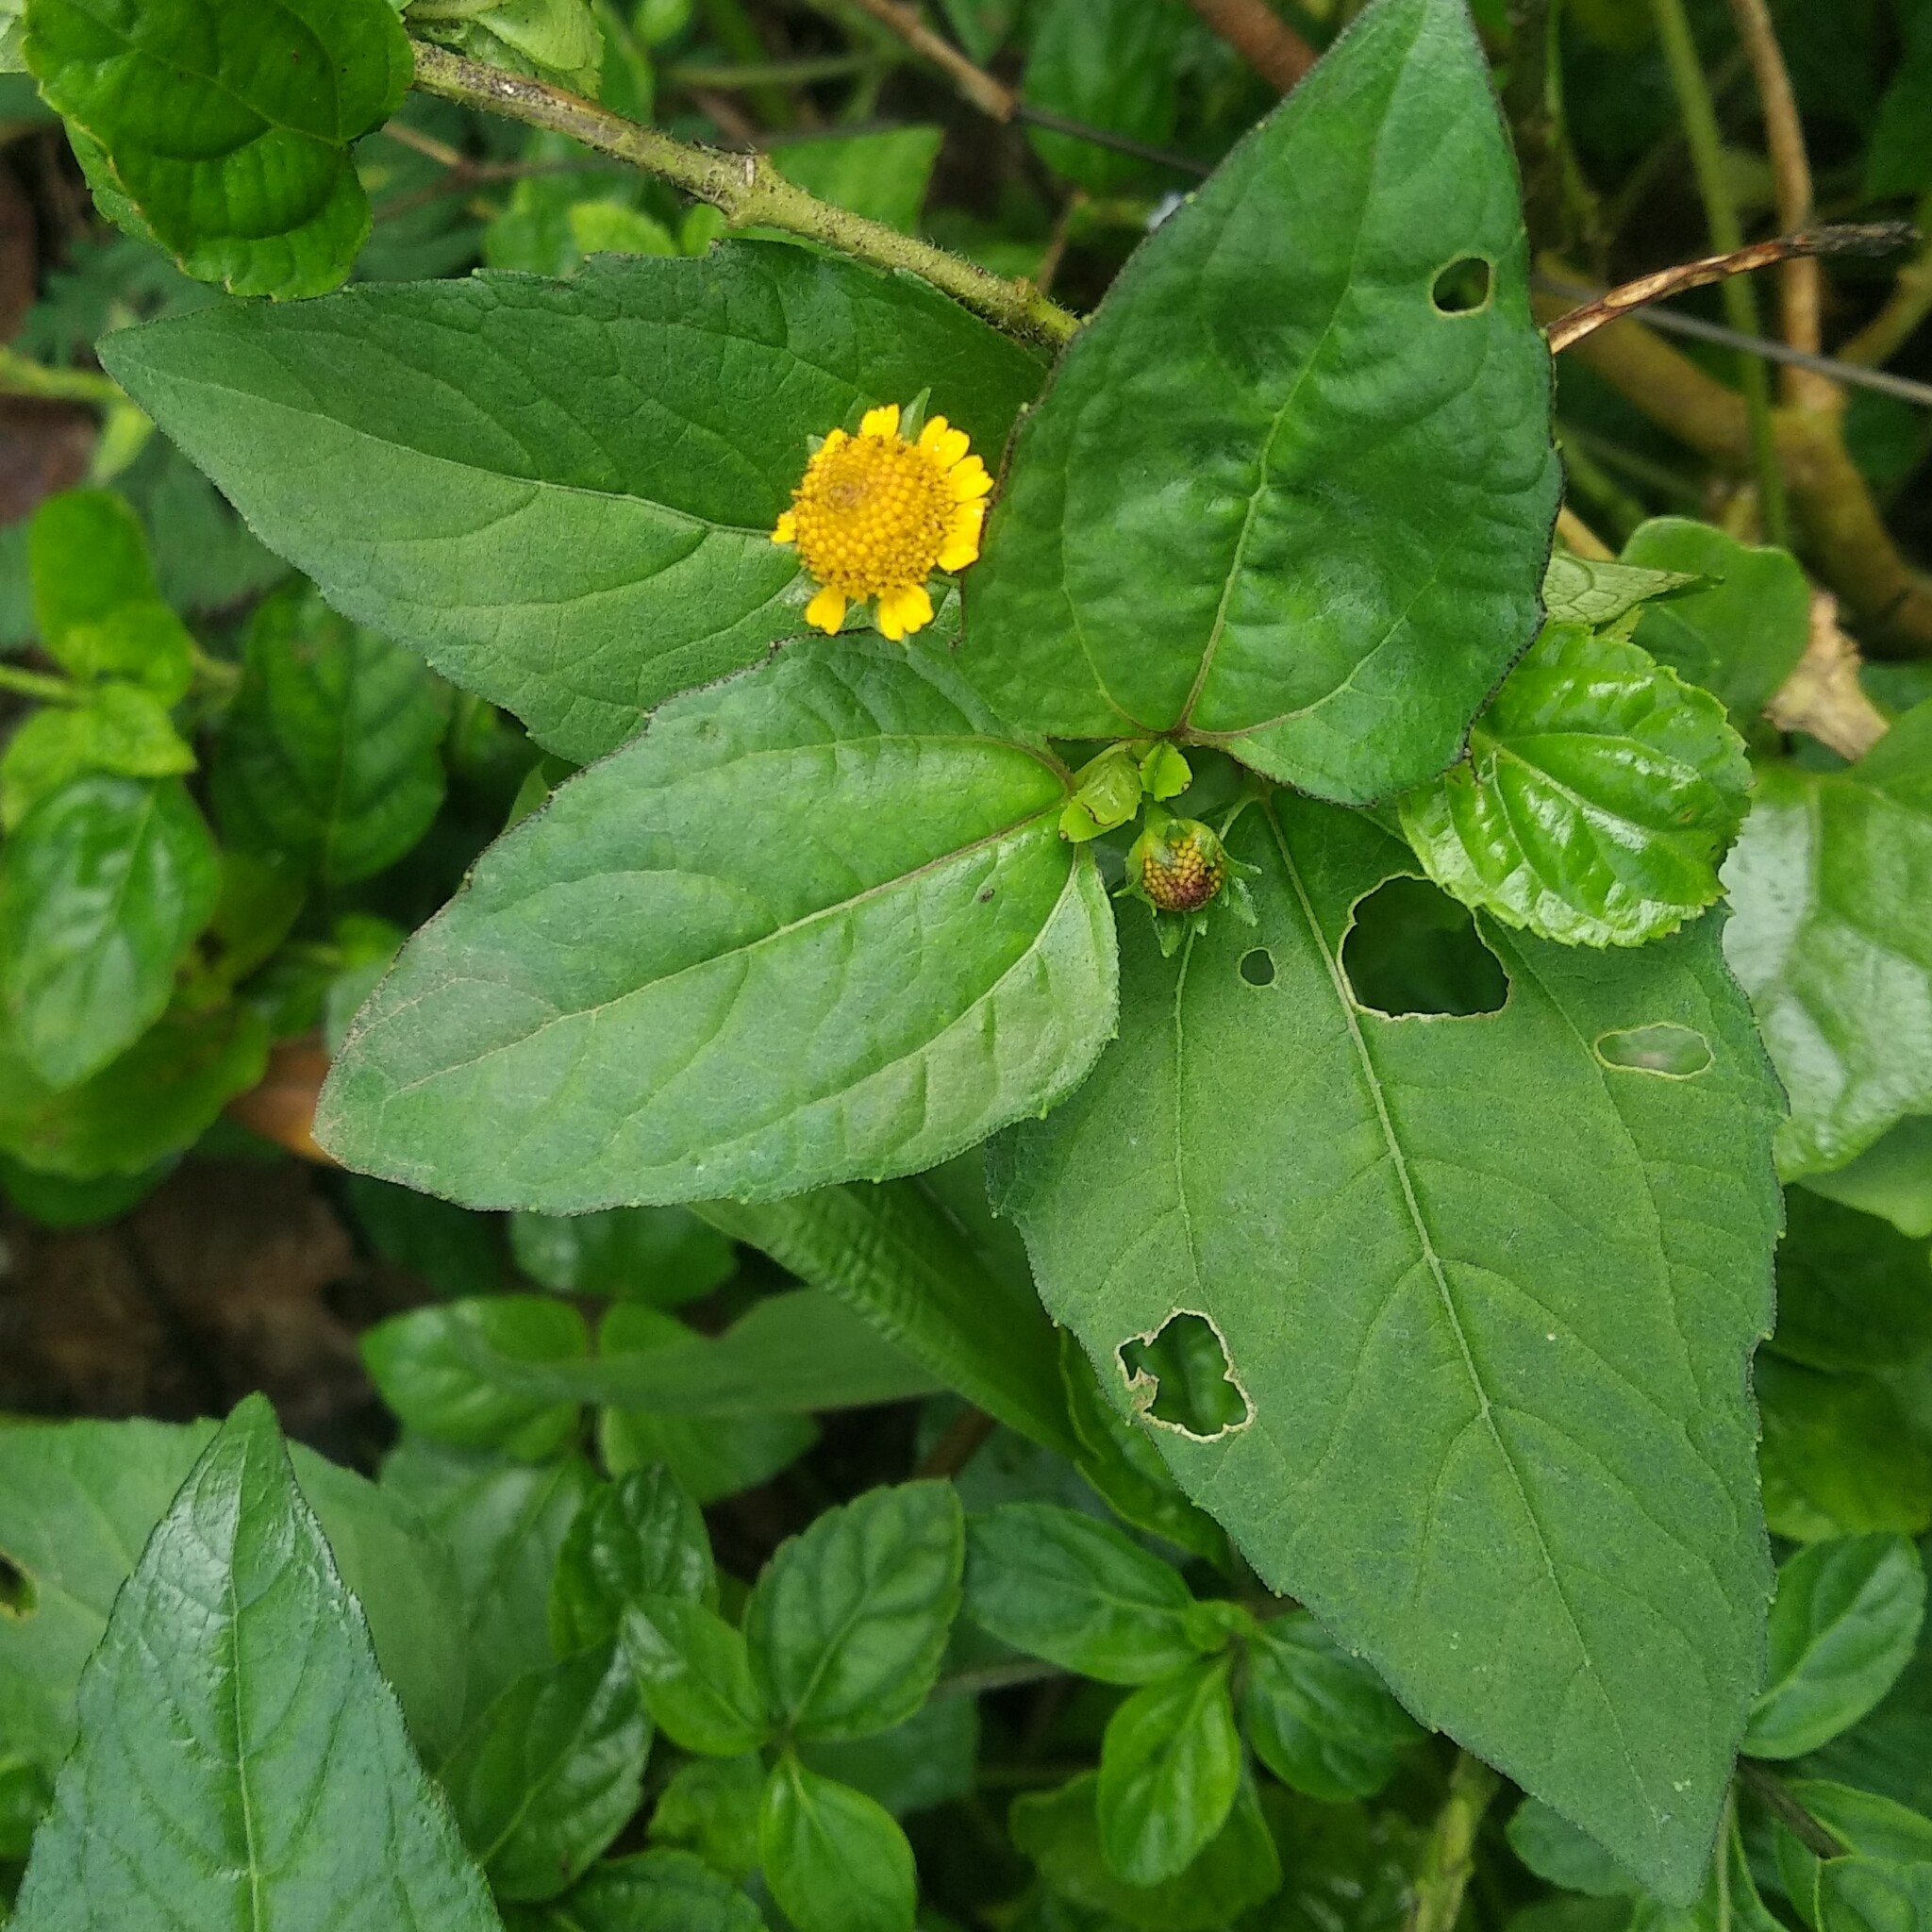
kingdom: Plantae
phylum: Tracheophyta
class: Magnoliopsida
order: Asterales
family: Asteraceae
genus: Sphagneticola
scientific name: Sphagneticola trilobata
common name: Bay biscayne creeping-oxeye
